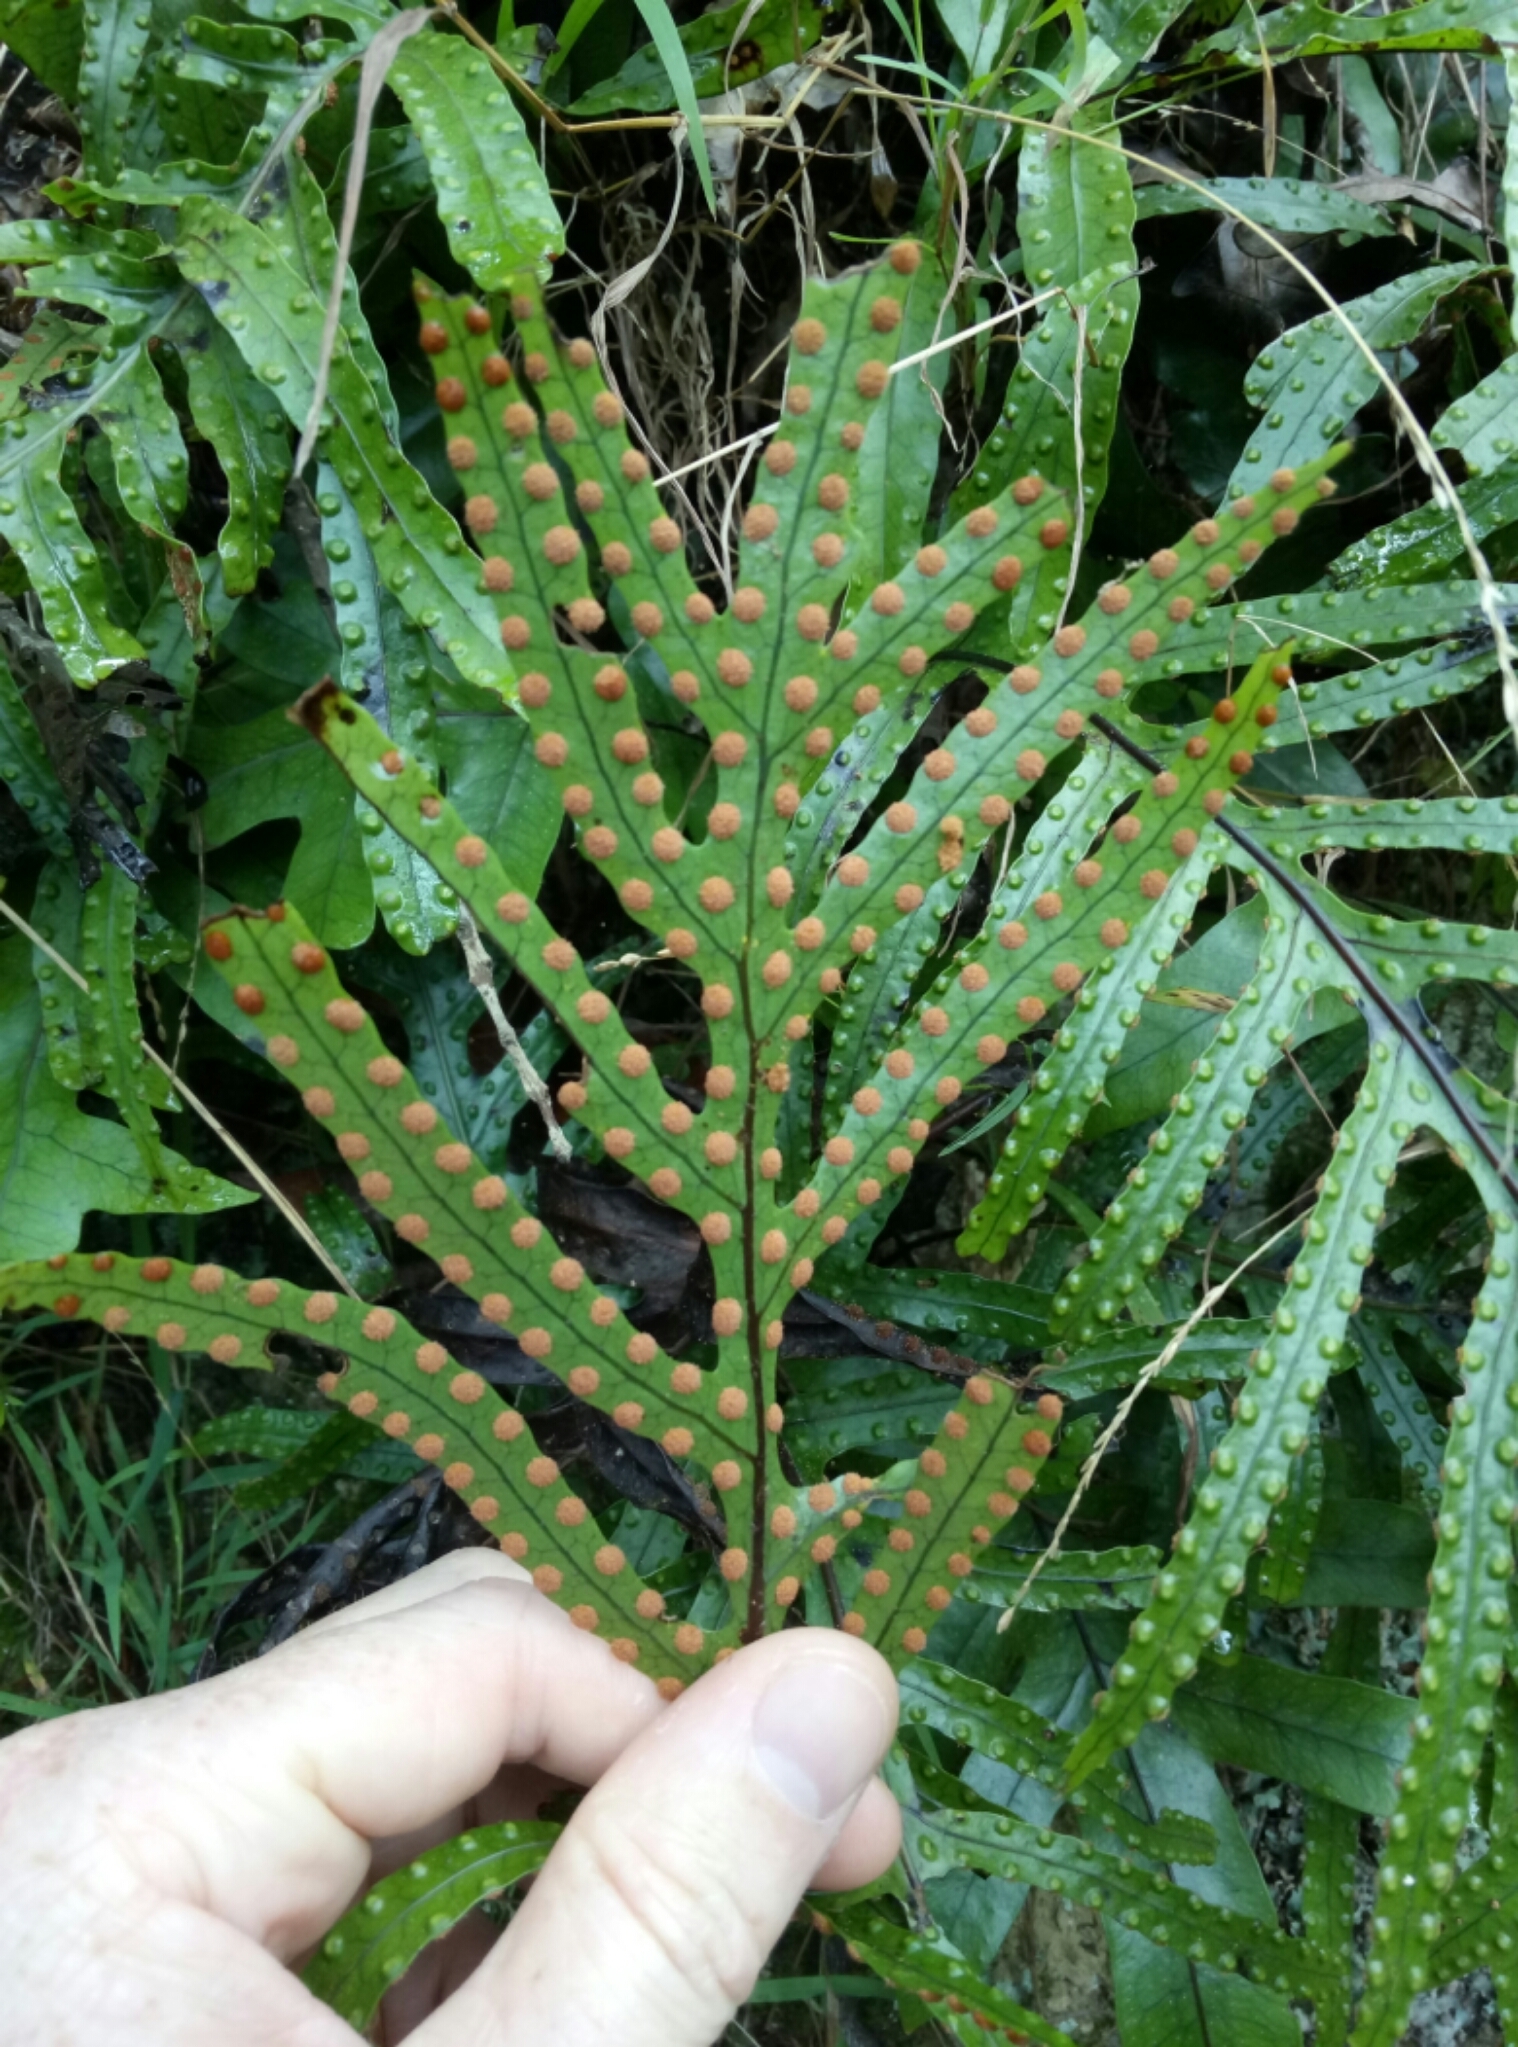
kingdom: Plantae
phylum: Tracheophyta
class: Polypodiopsida
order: Polypodiales
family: Polypodiaceae
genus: Lecanopteris
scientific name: Lecanopteris pustulata
